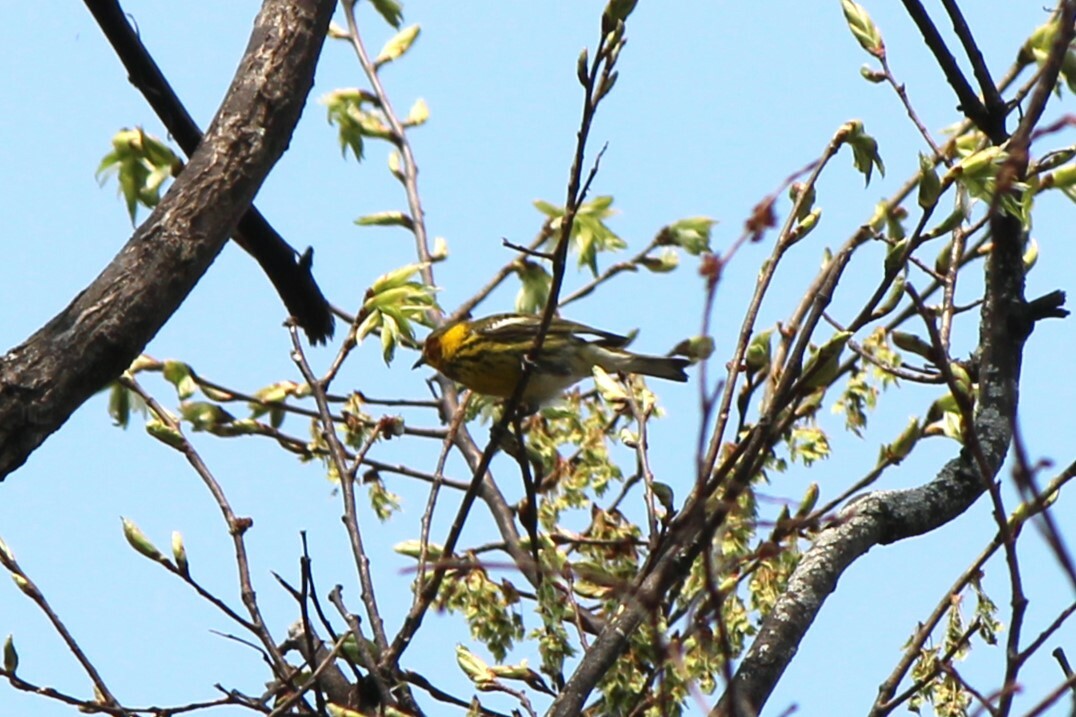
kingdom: Animalia
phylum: Chordata
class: Aves
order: Passeriformes
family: Parulidae
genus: Setophaga
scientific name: Setophaga tigrina
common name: Cape may warbler
